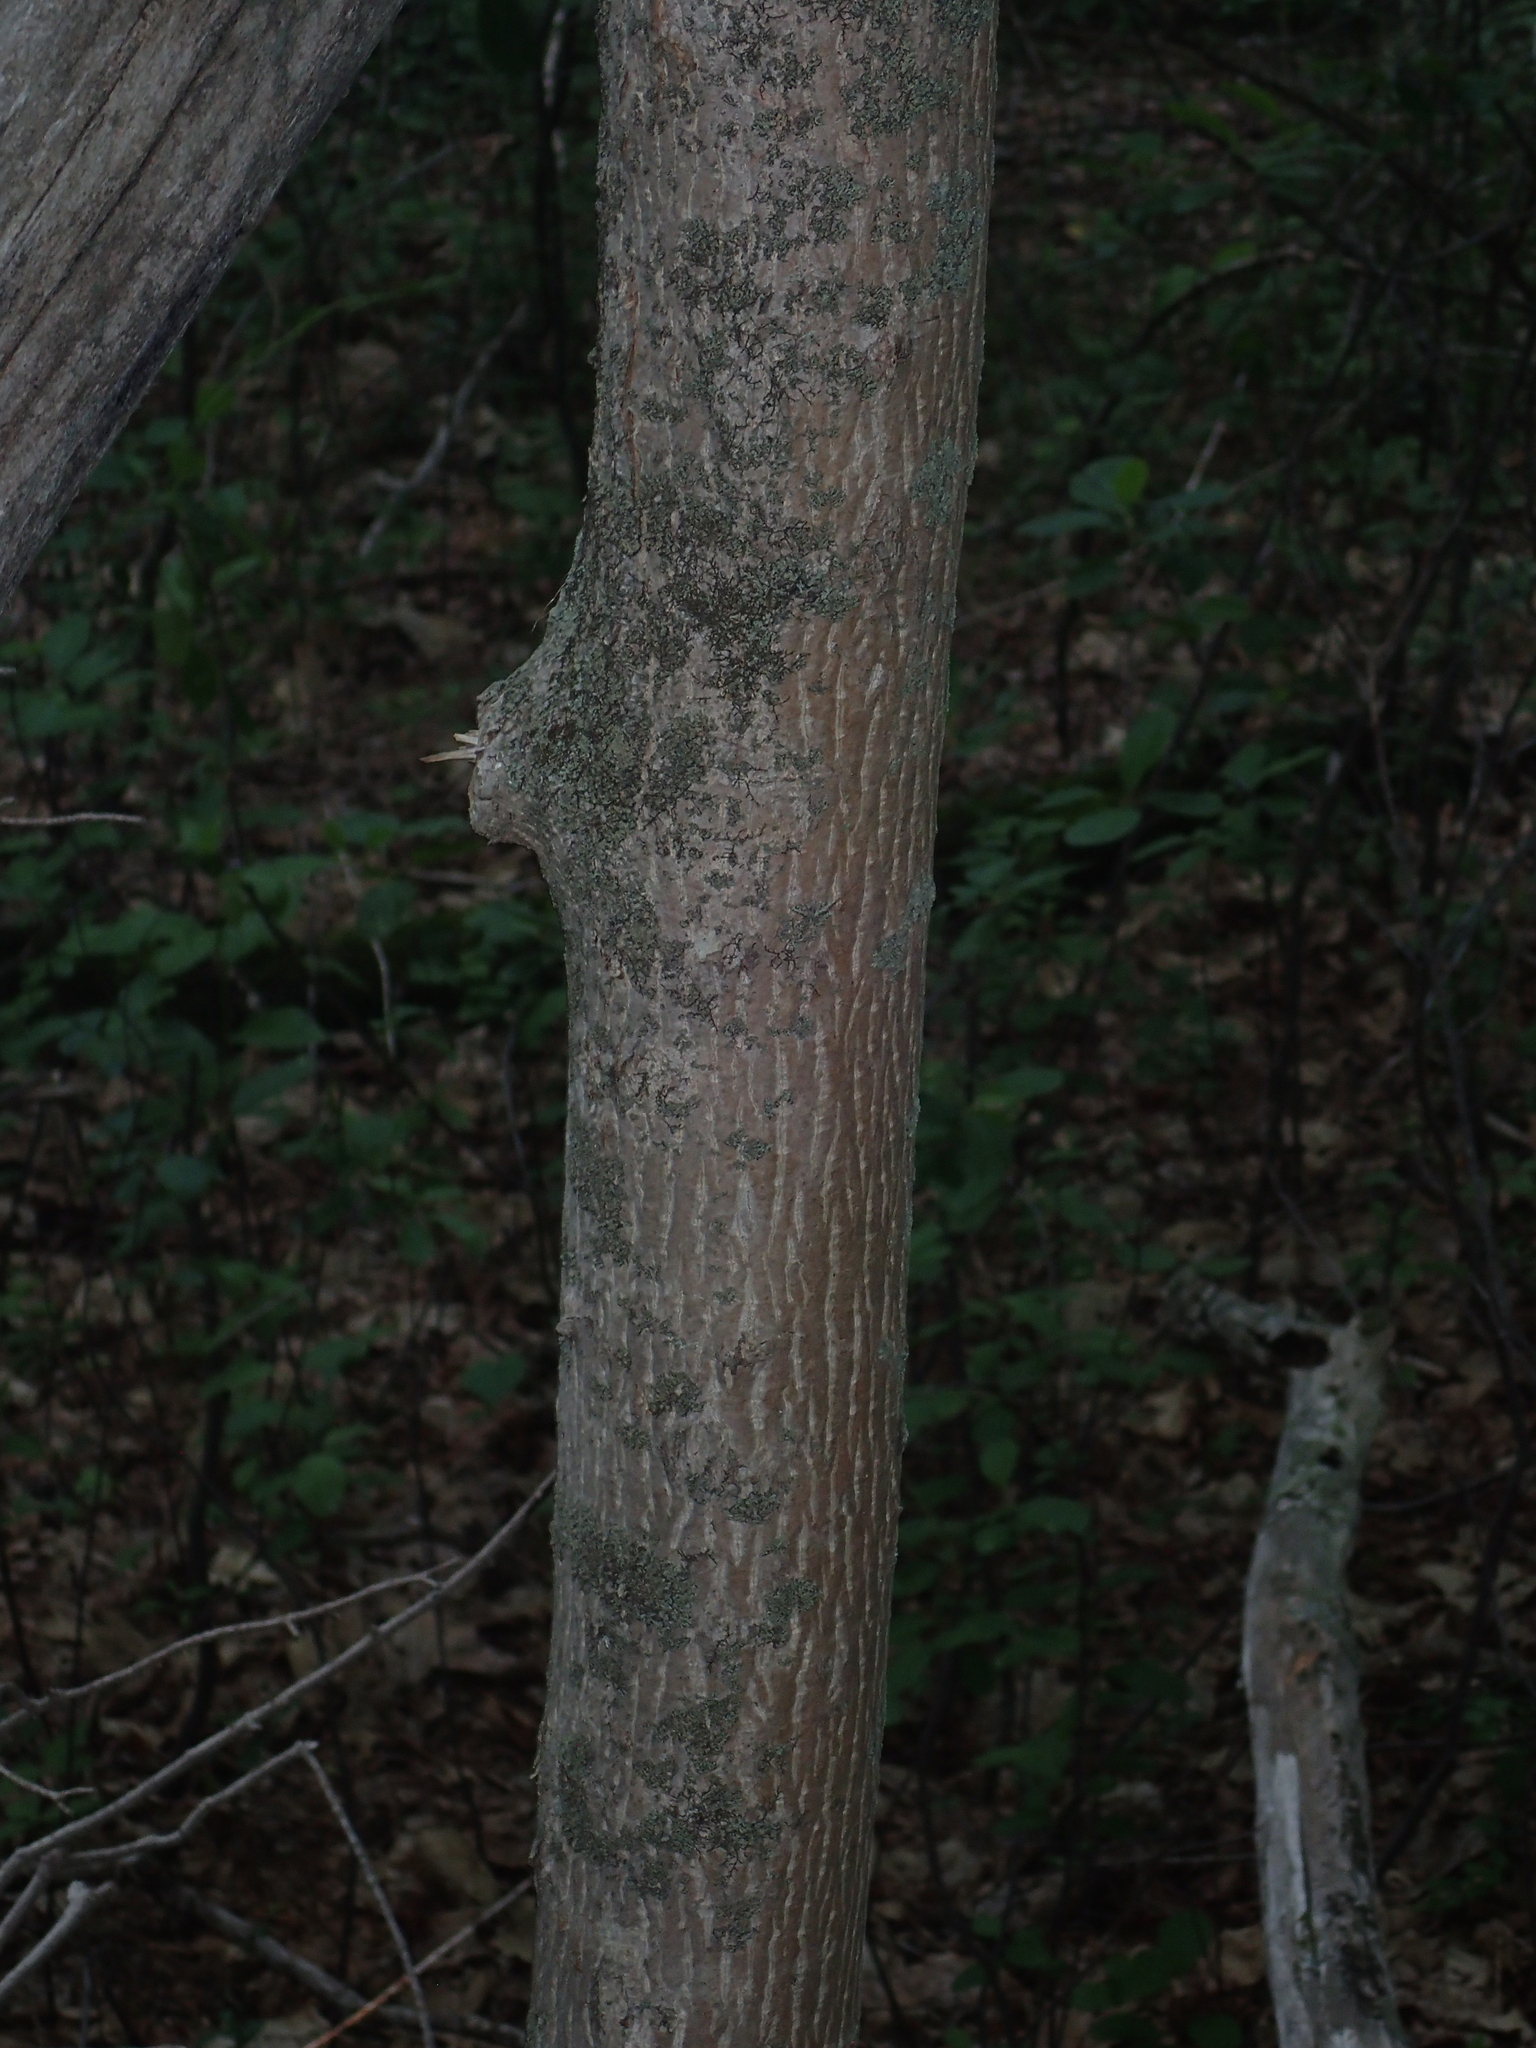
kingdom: Plantae
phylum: Tracheophyta
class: Magnoliopsida
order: Sapindales
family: Sapindaceae
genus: Acer
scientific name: Acer platanoides
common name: Norway maple
